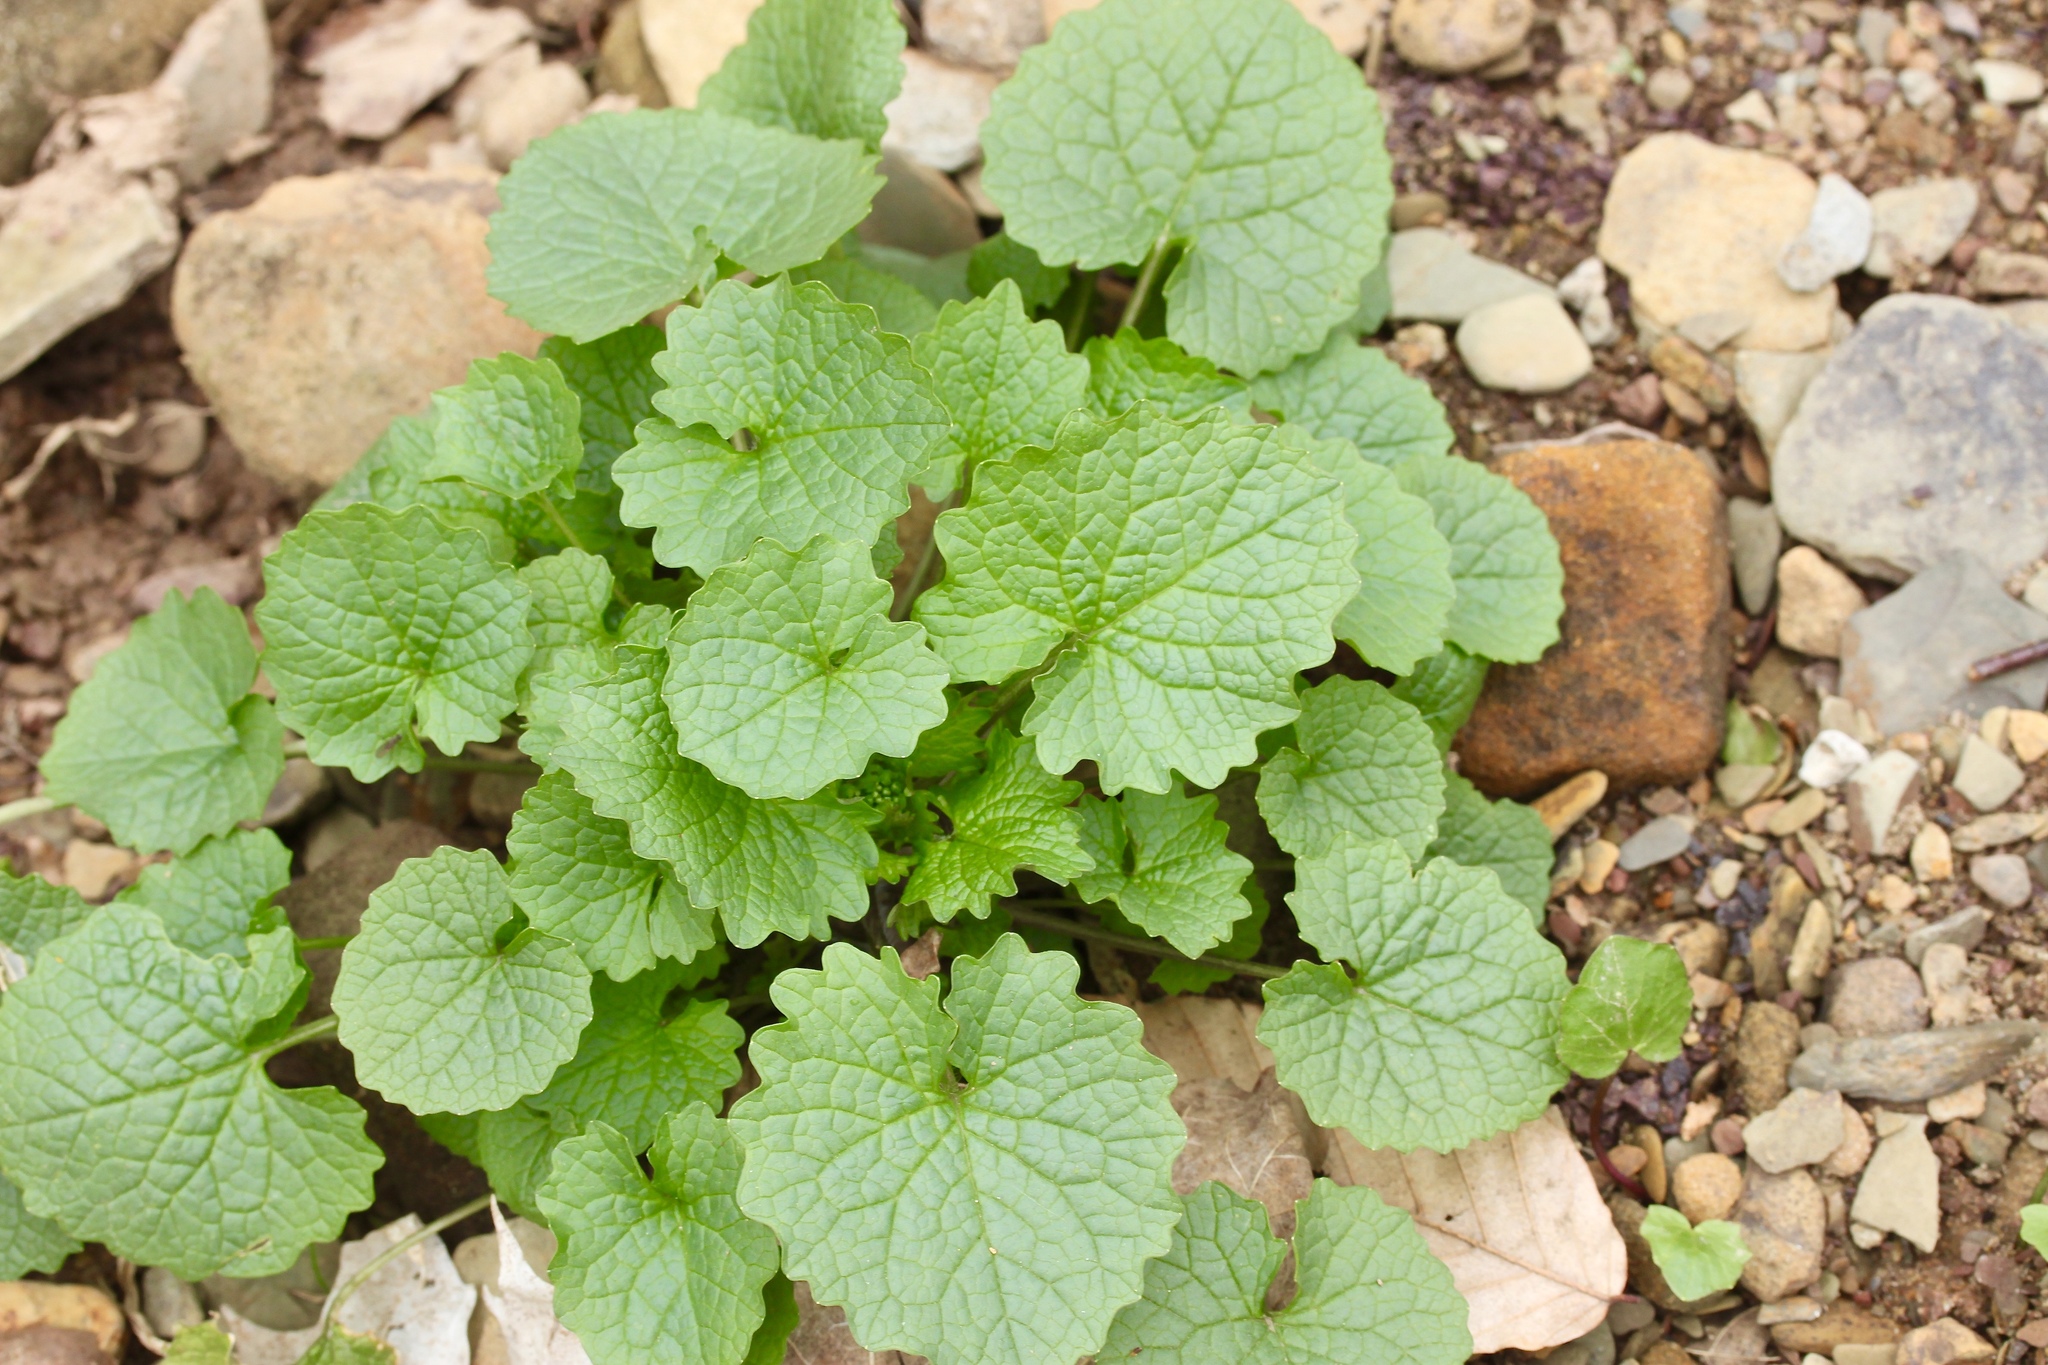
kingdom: Plantae
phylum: Tracheophyta
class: Magnoliopsida
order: Brassicales
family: Brassicaceae
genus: Alliaria
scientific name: Alliaria petiolata
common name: Garlic mustard
